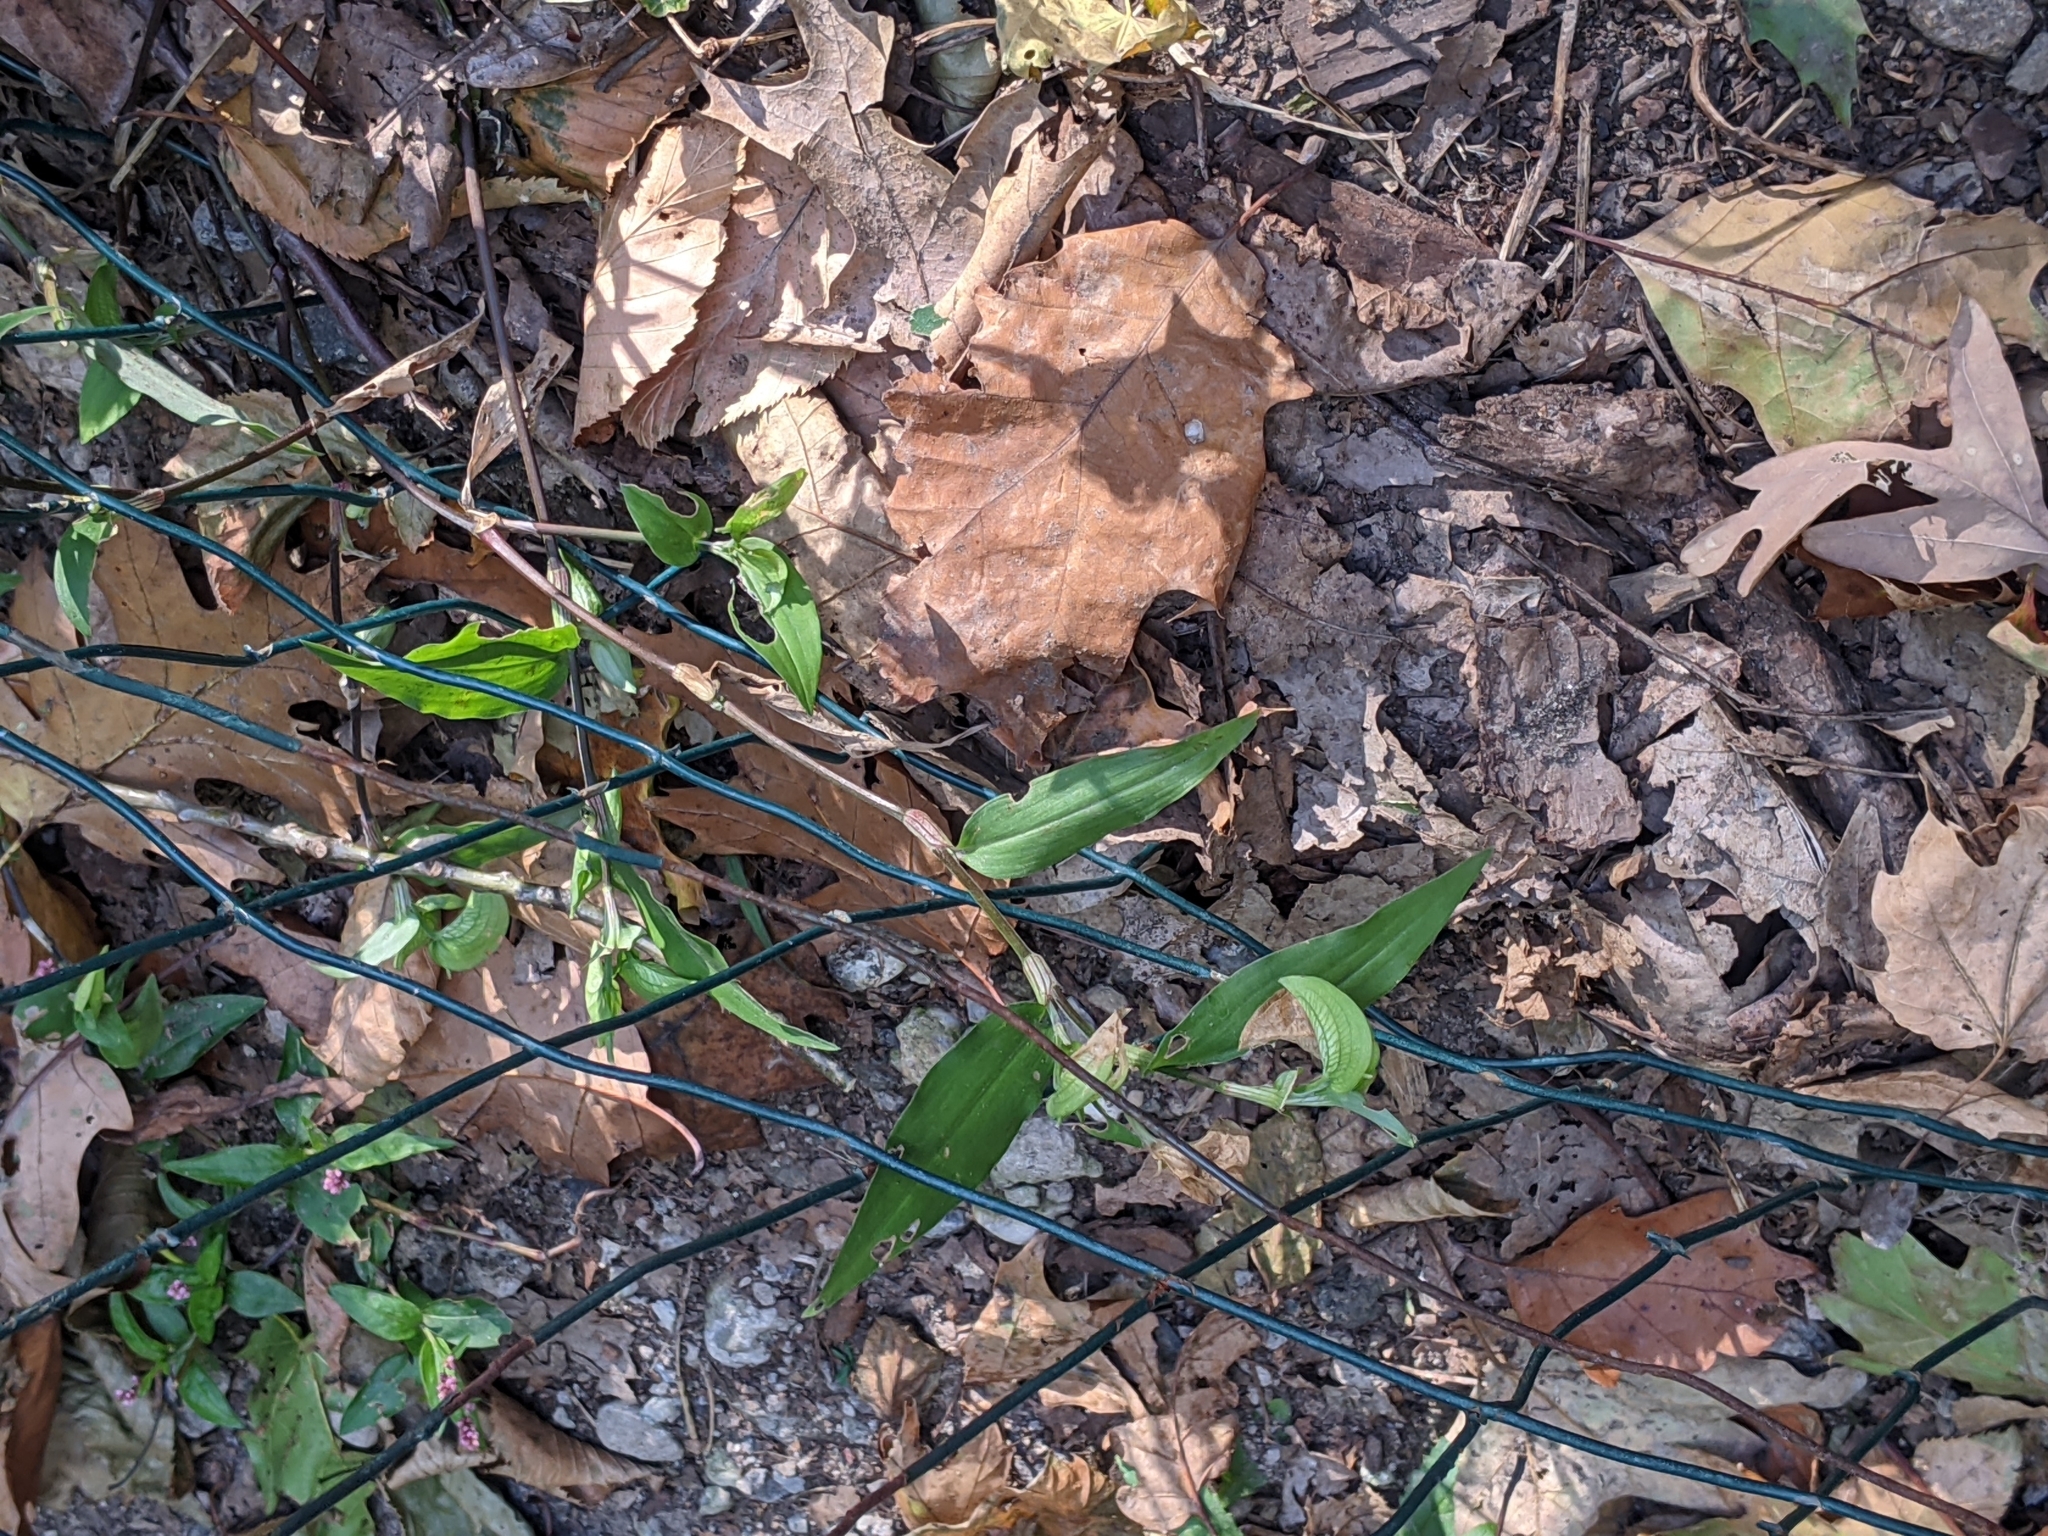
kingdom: Plantae
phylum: Tracheophyta
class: Liliopsida
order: Commelinales
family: Commelinaceae
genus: Commelina
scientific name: Commelina communis
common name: Asiatic dayflower
